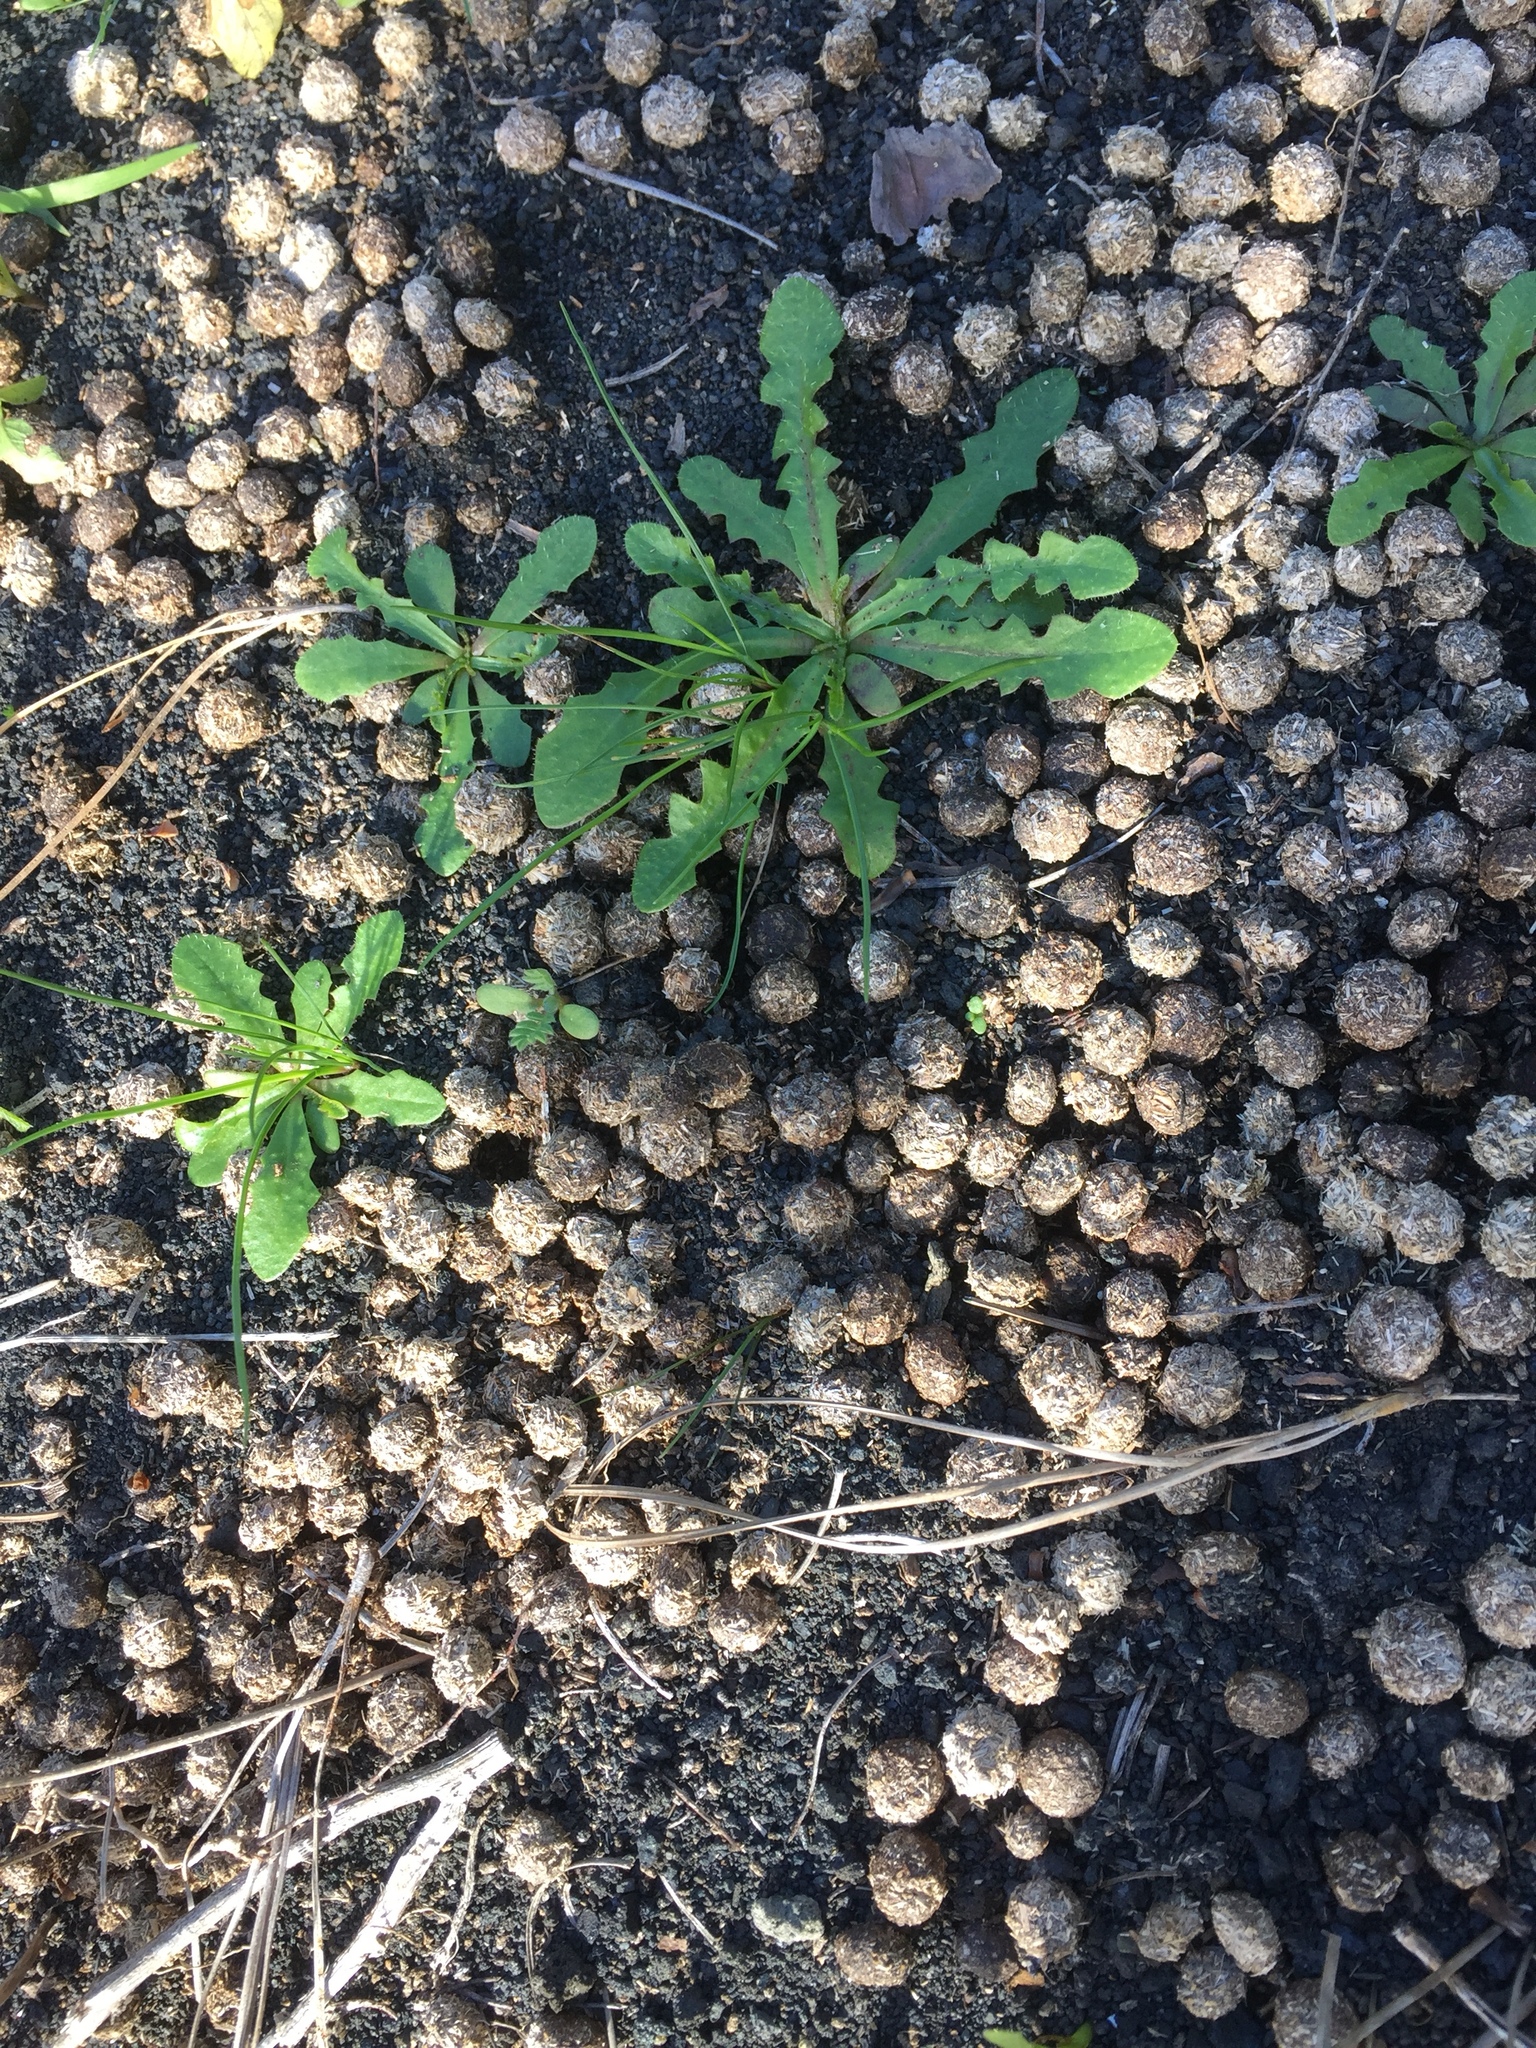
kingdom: Animalia
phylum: Chordata
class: Mammalia
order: Lagomorpha
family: Leporidae
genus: Oryctolagus
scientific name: Oryctolagus cuniculus
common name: European rabbit
